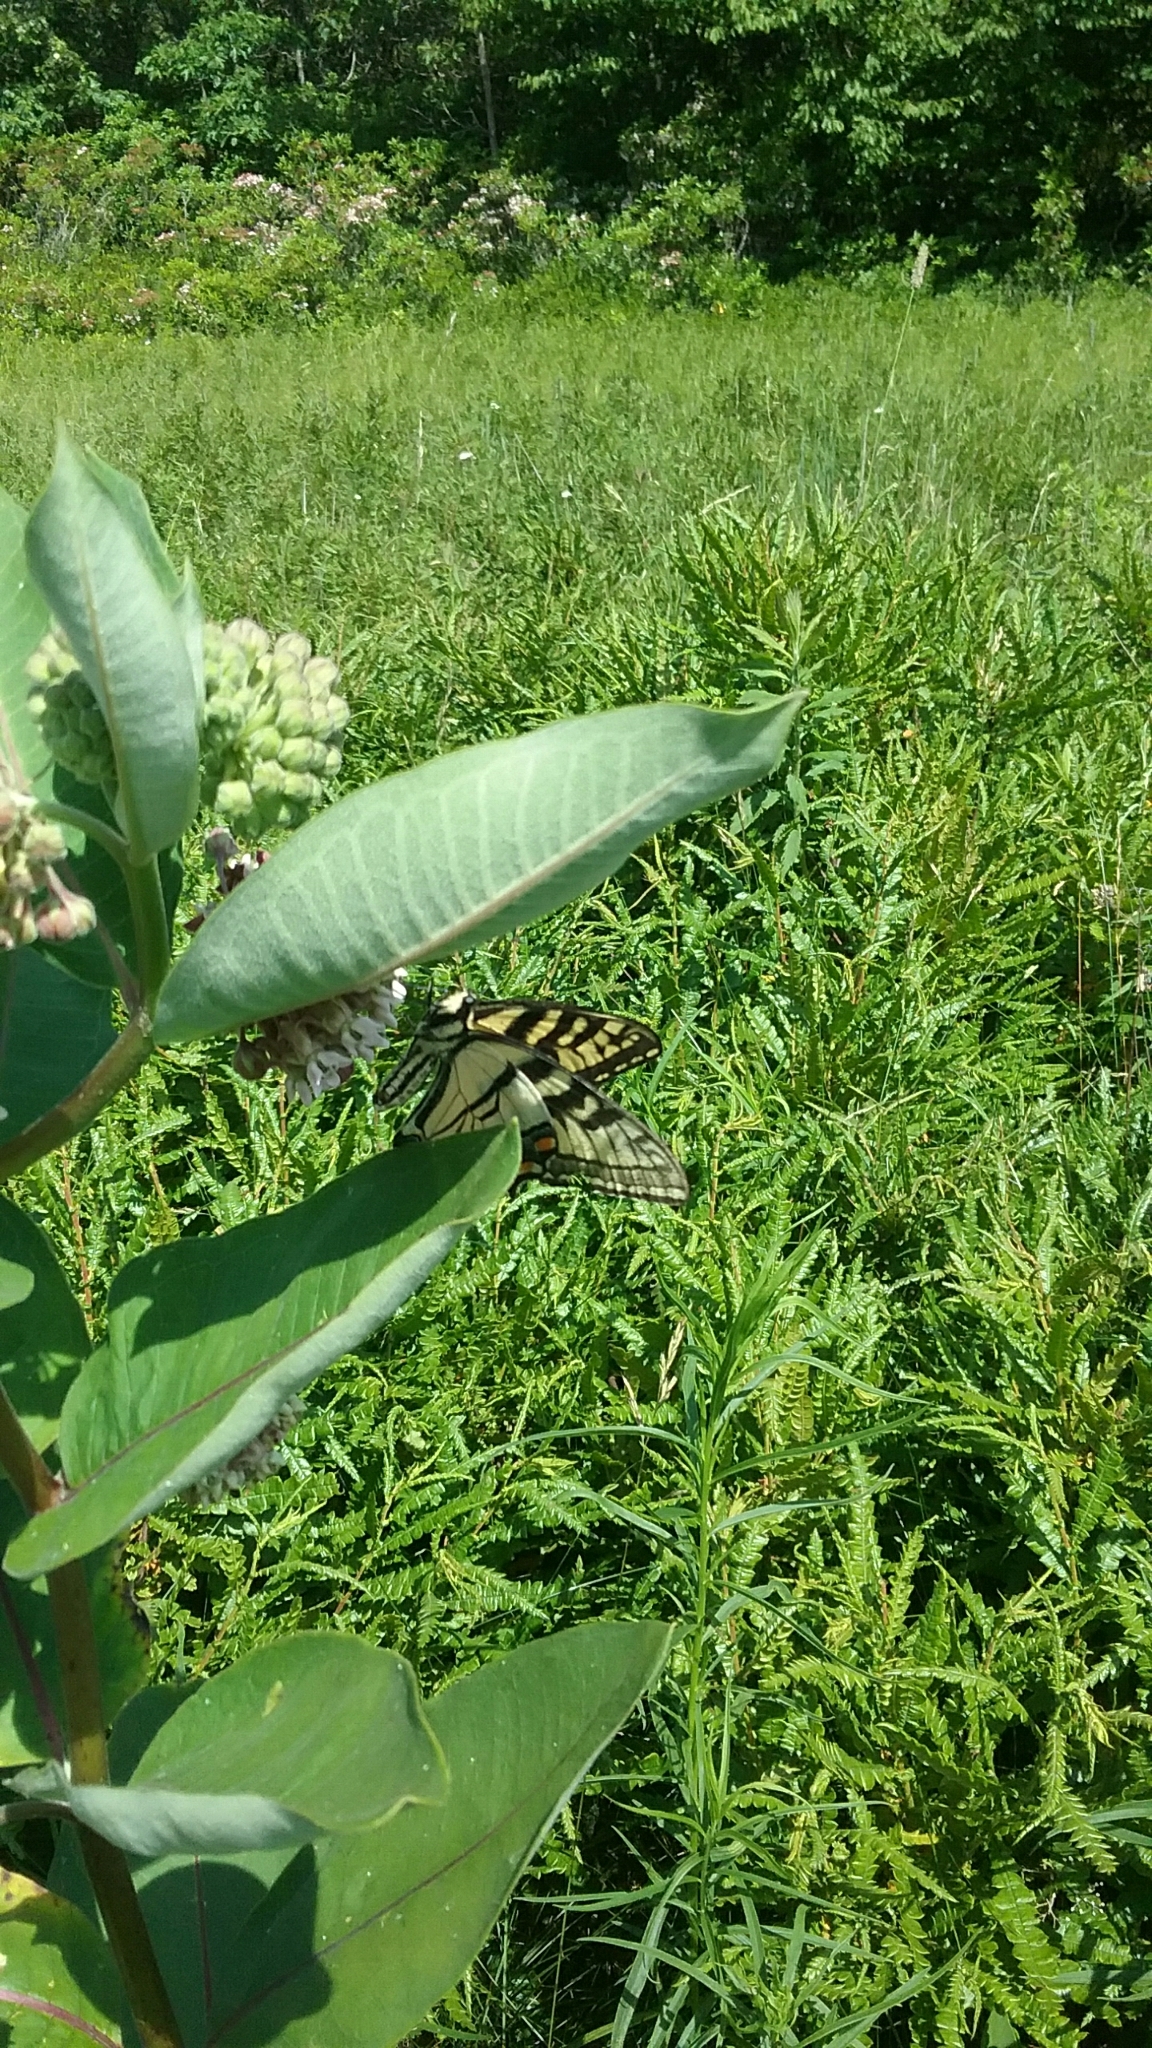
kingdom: Plantae
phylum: Tracheophyta
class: Magnoliopsida
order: Gentianales
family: Apocynaceae
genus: Asclepias
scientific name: Asclepias syriaca
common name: Common milkweed
